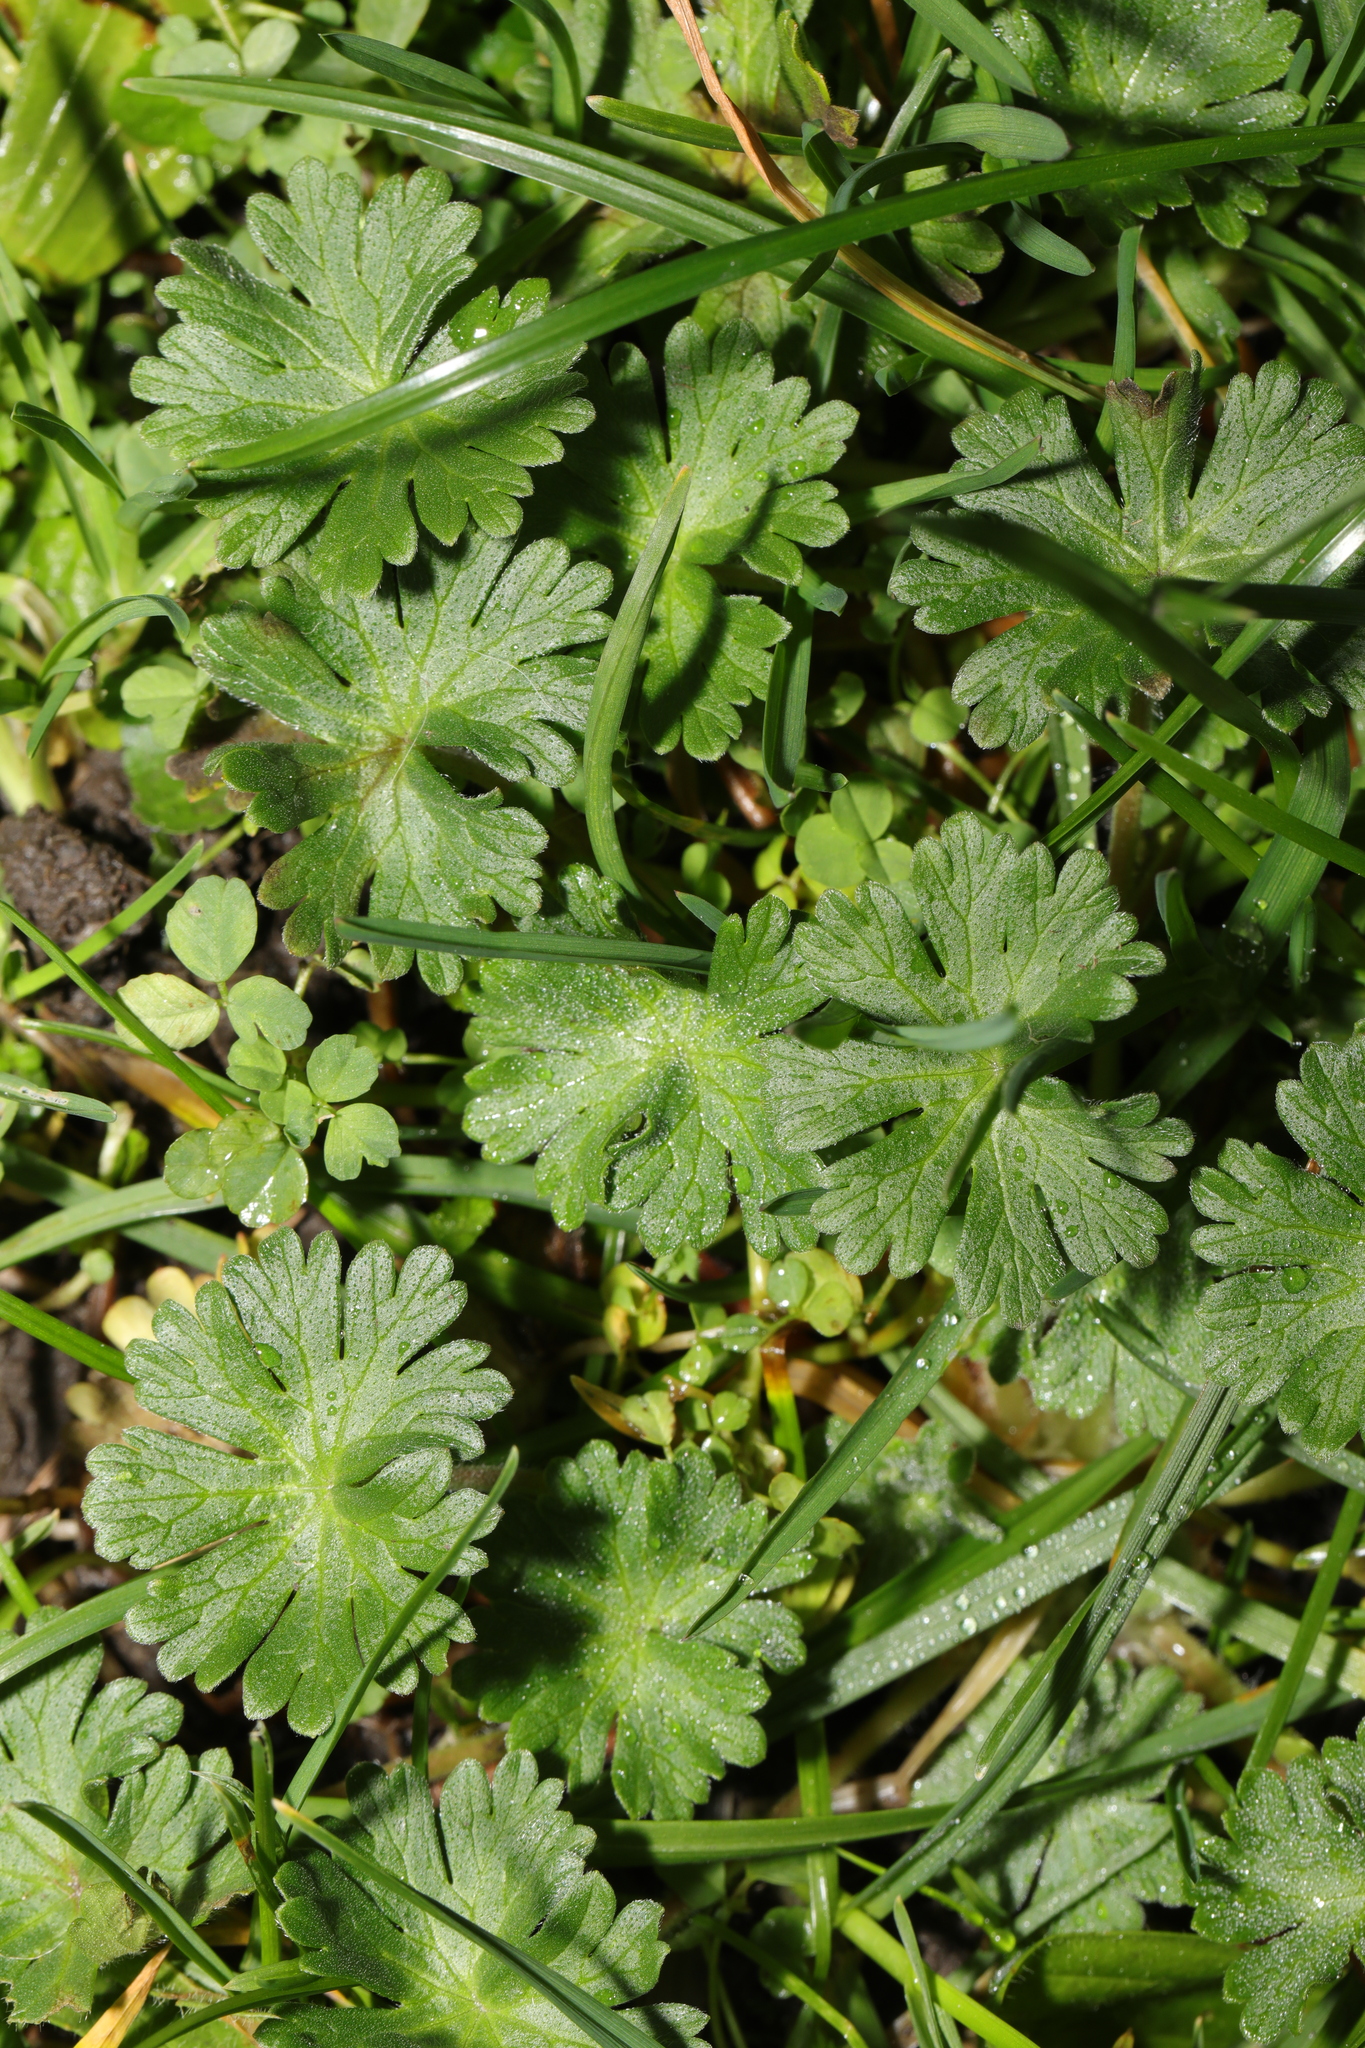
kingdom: Plantae
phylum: Tracheophyta
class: Magnoliopsida
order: Geraniales
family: Geraniaceae
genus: Geranium
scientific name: Geranium molle
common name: Dove's-foot crane's-bill
